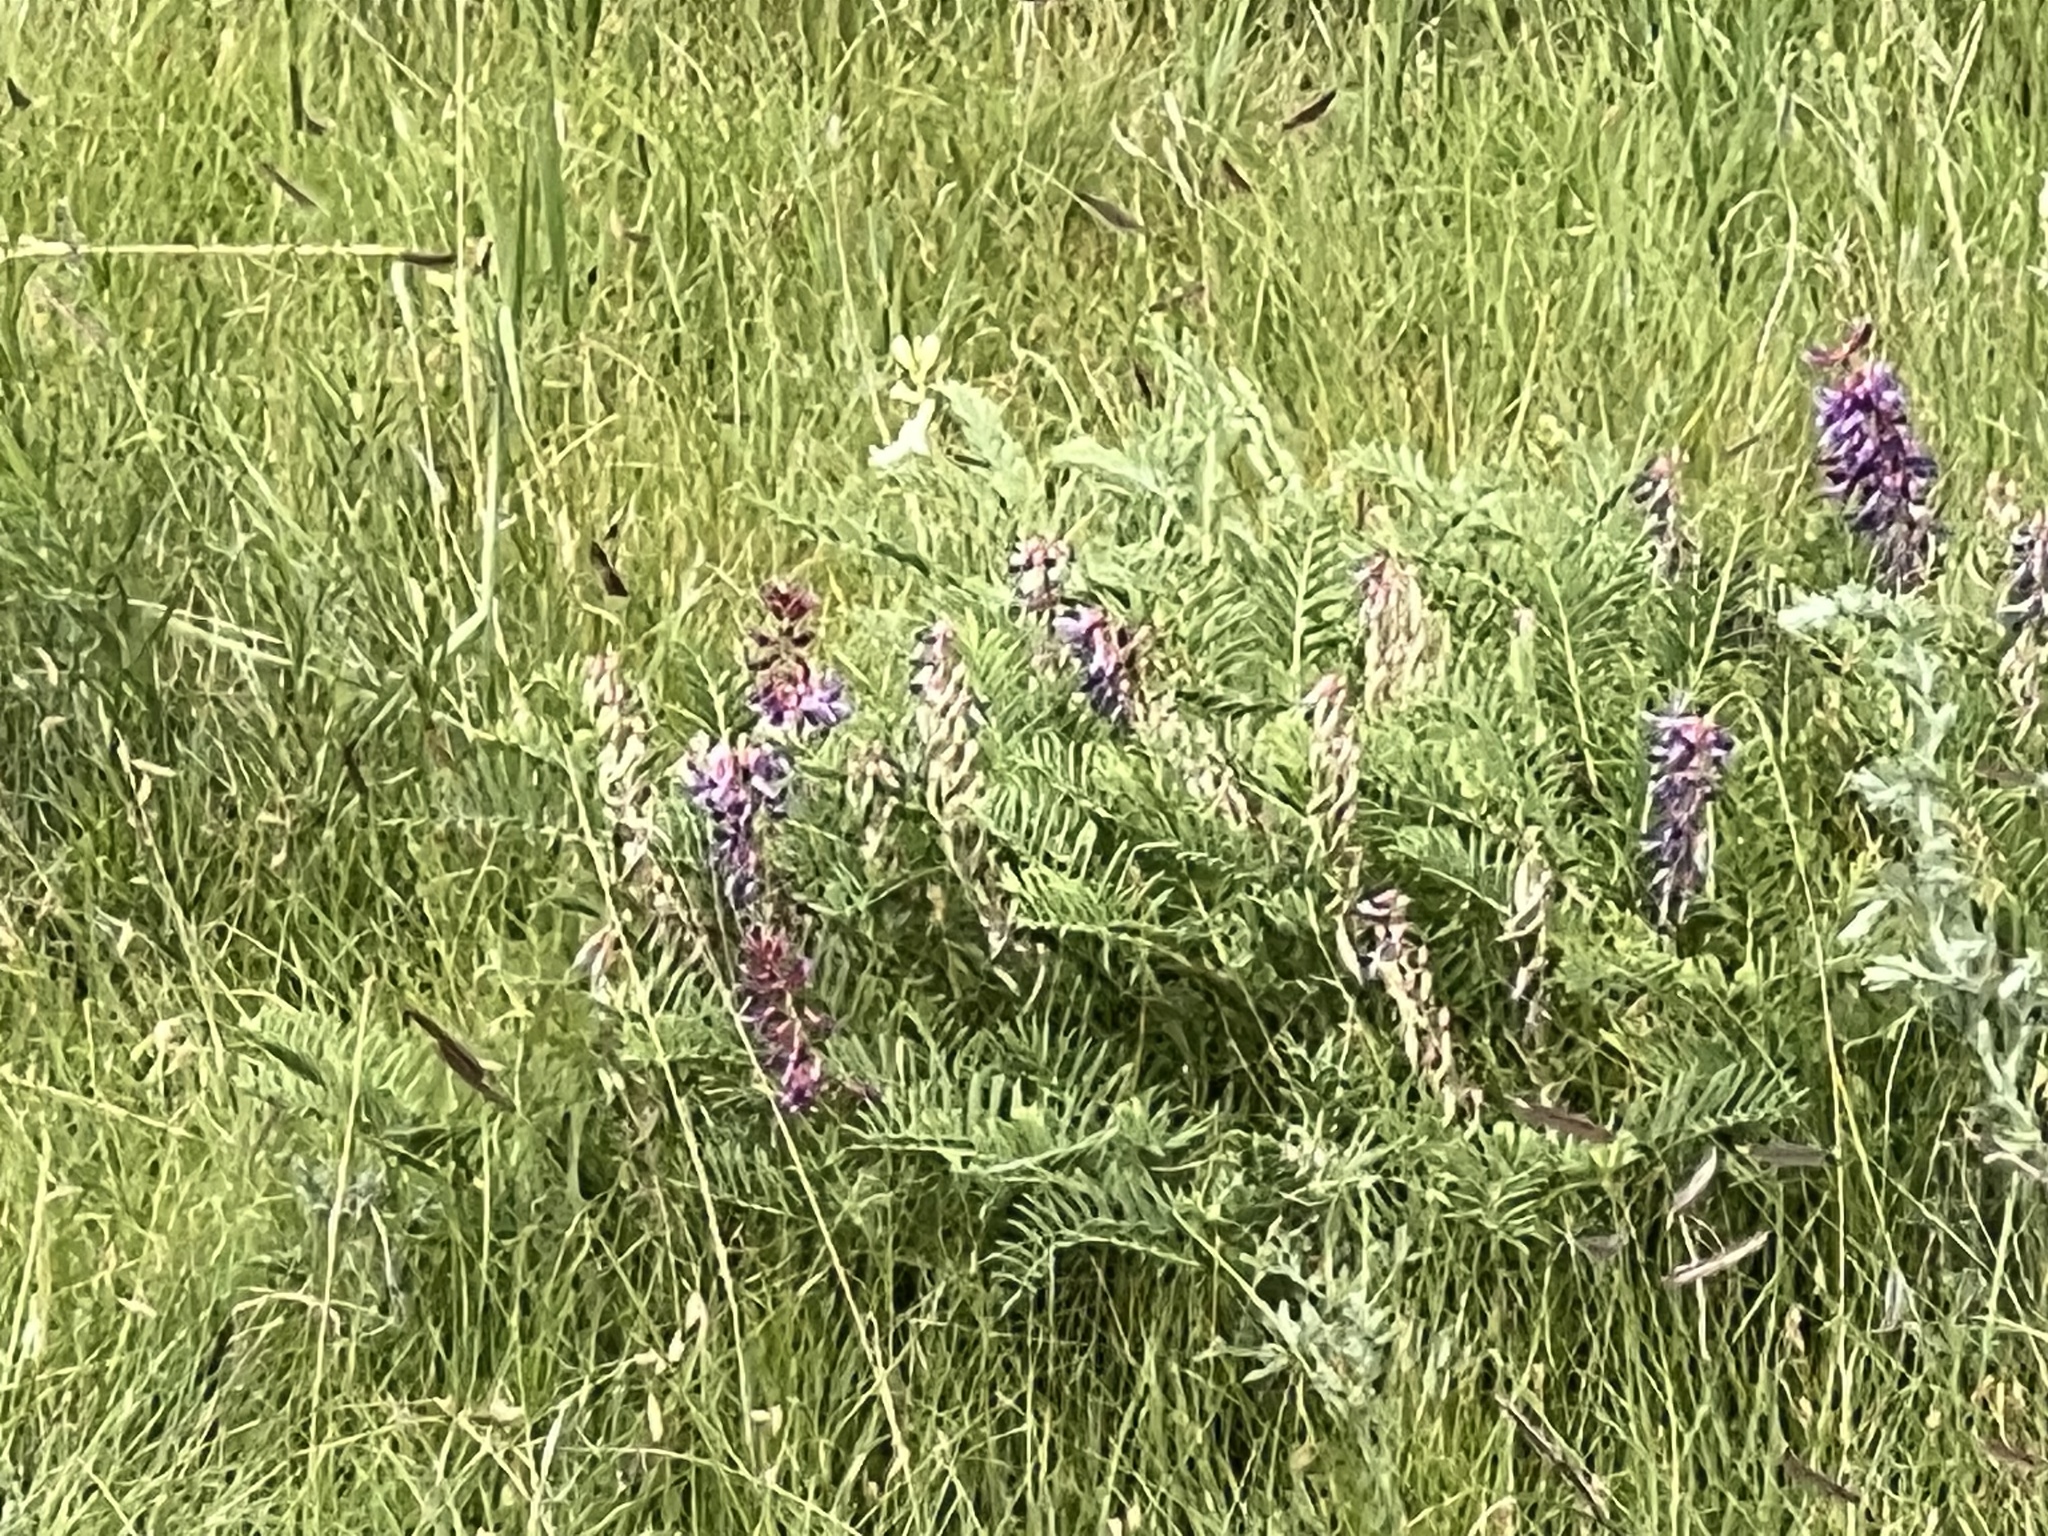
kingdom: Plantae
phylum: Tracheophyta
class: Magnoliopsida
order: Fabales
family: Fabaceae
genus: Astragalus
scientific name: Astragalus bisulcatus
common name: Two-groove milk-vetch
